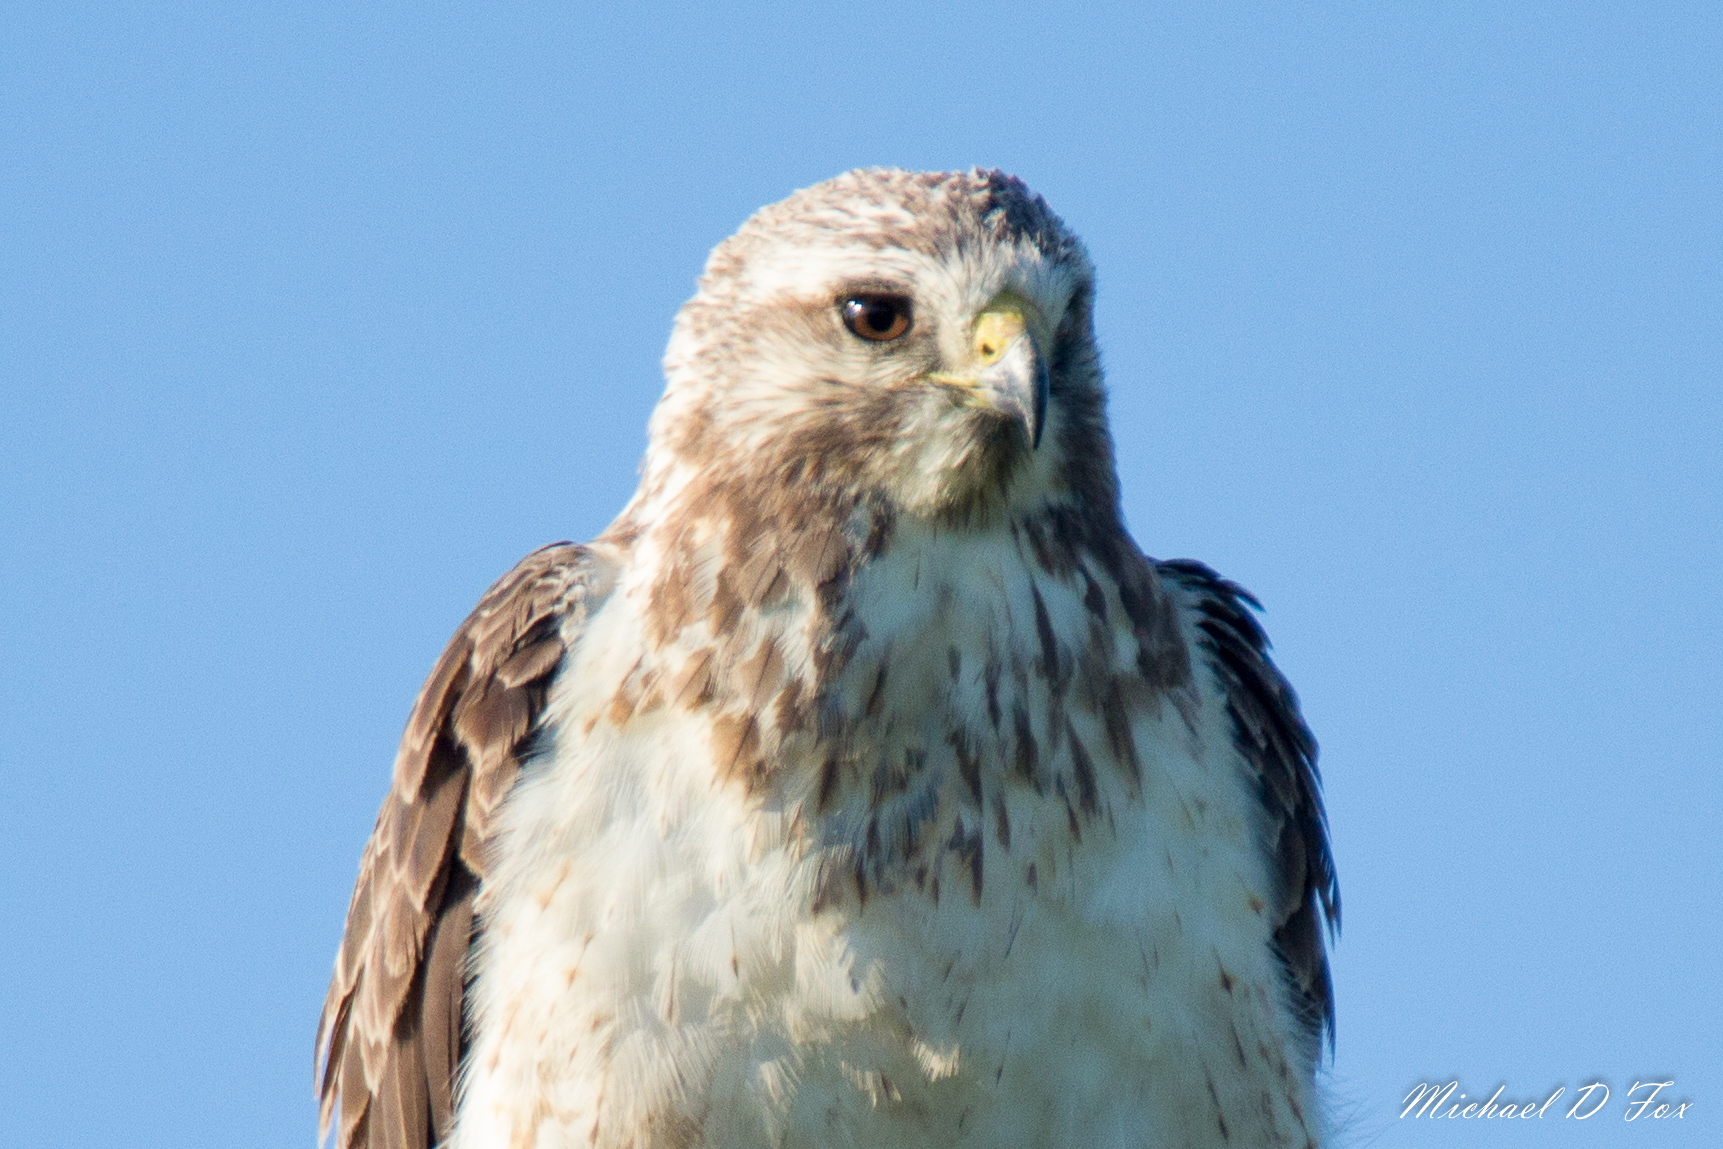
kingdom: Animalia
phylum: Chordata
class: Aves
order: Accipitriformes
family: Accipitridae
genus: Buteo
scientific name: Buteo swainsoni
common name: Swainson's hawk
